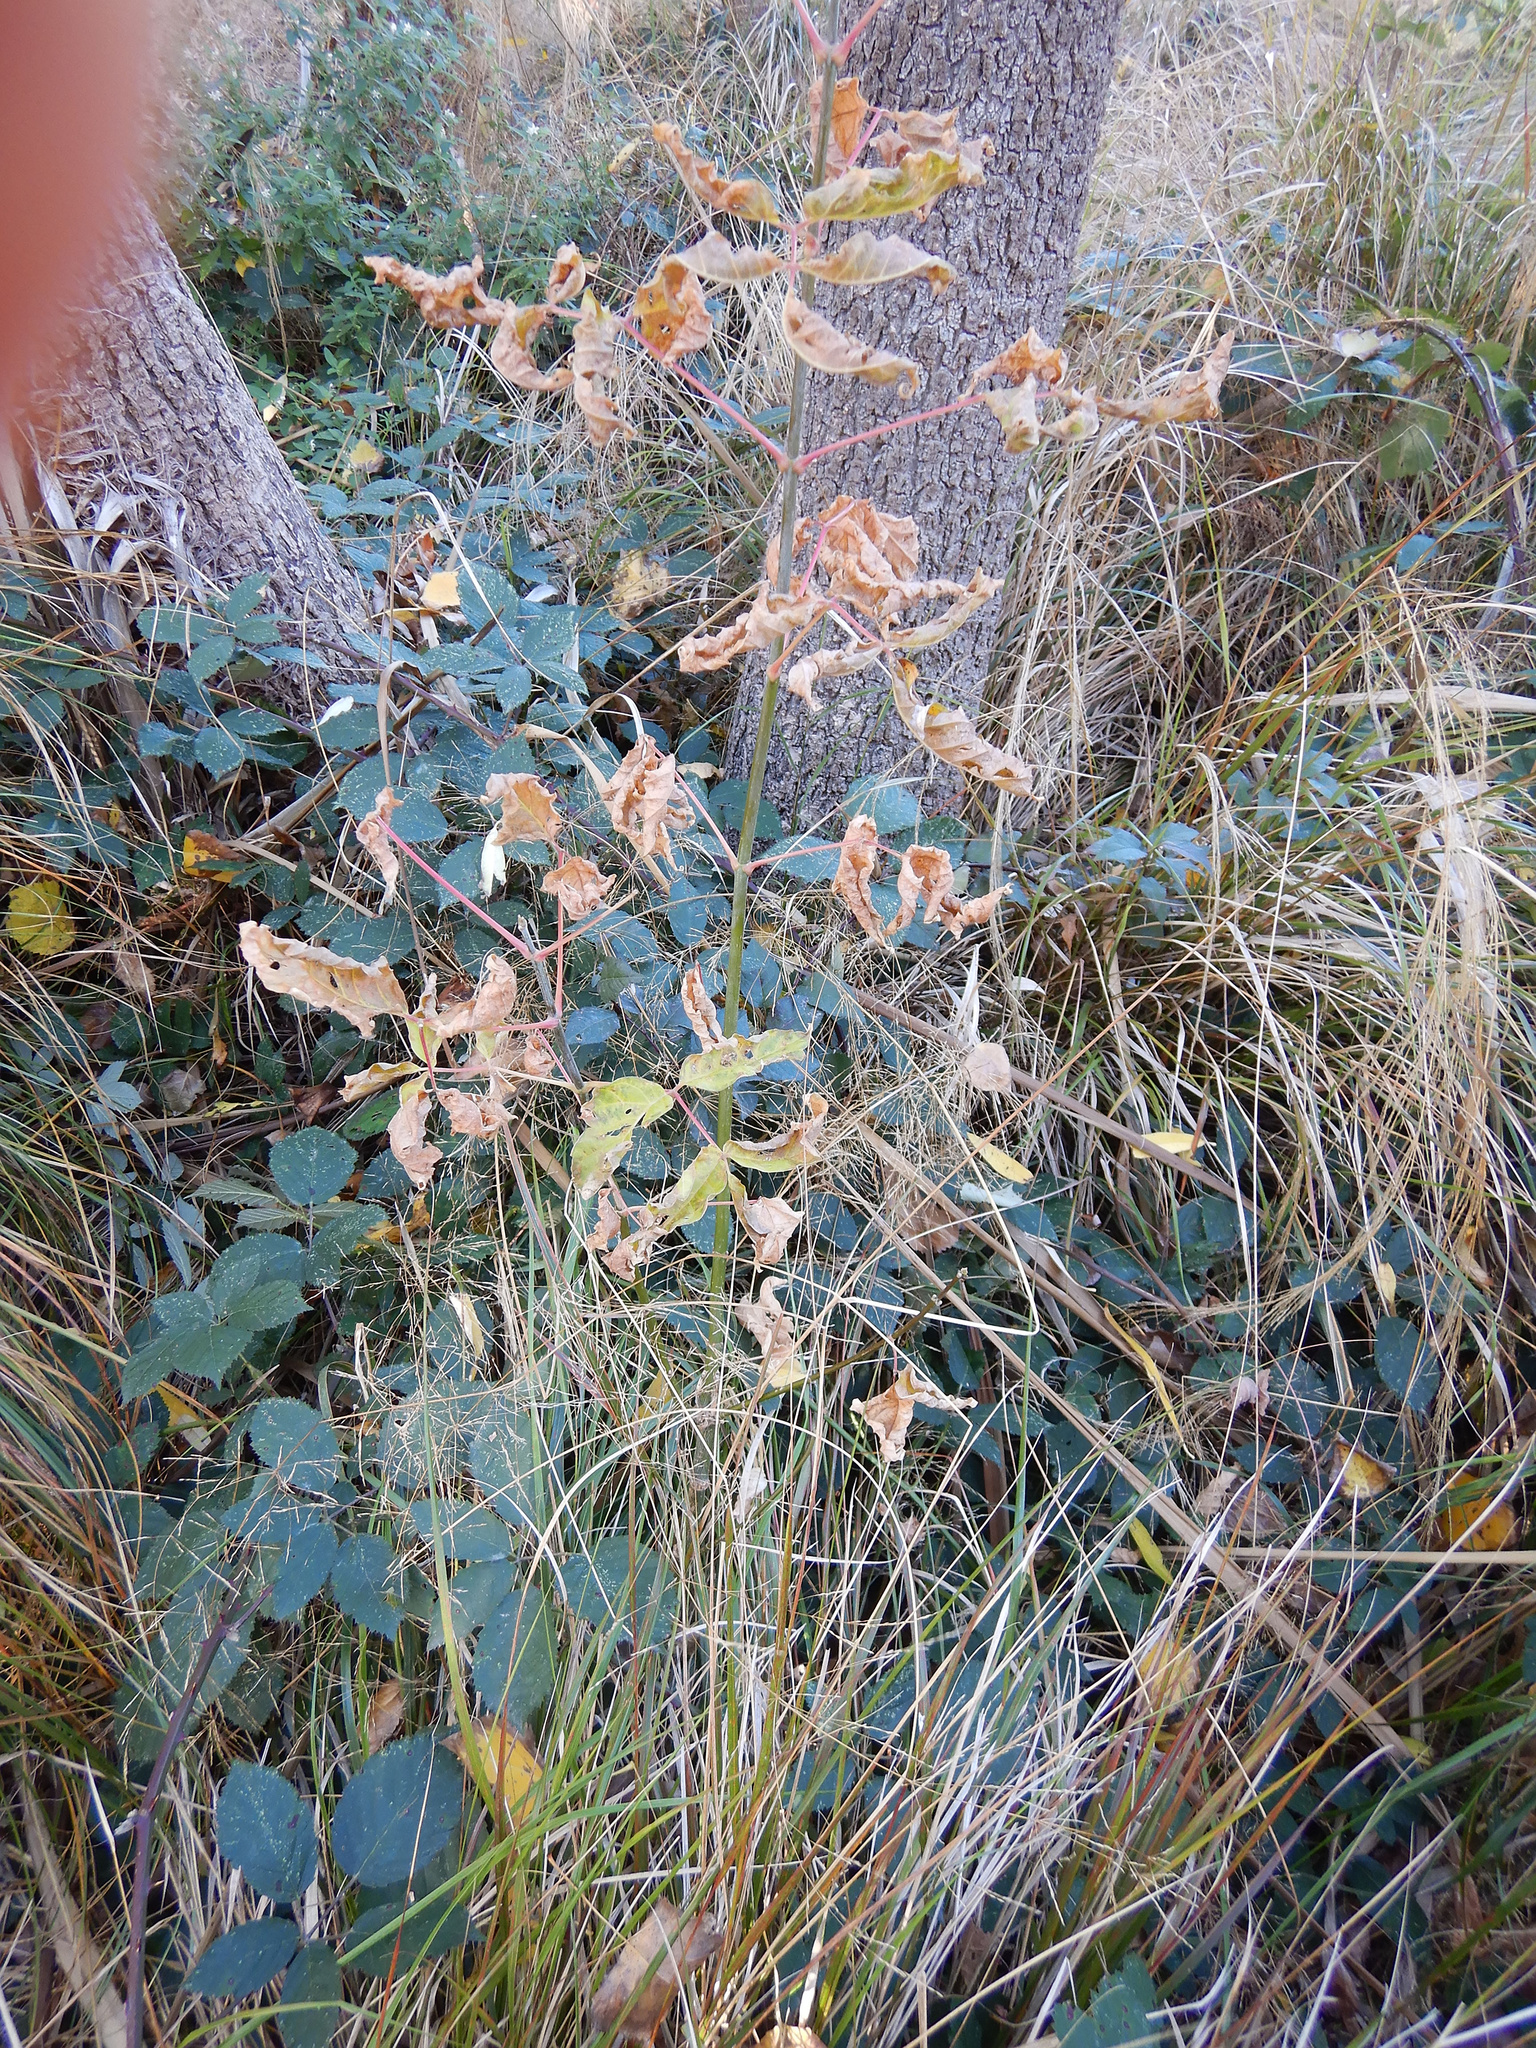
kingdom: Plantae
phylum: Tracheophyta
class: Magnoliopsida
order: Sapindales
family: Sapindaceae
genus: Acer
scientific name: Acer negundo
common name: Ashleaf maple
